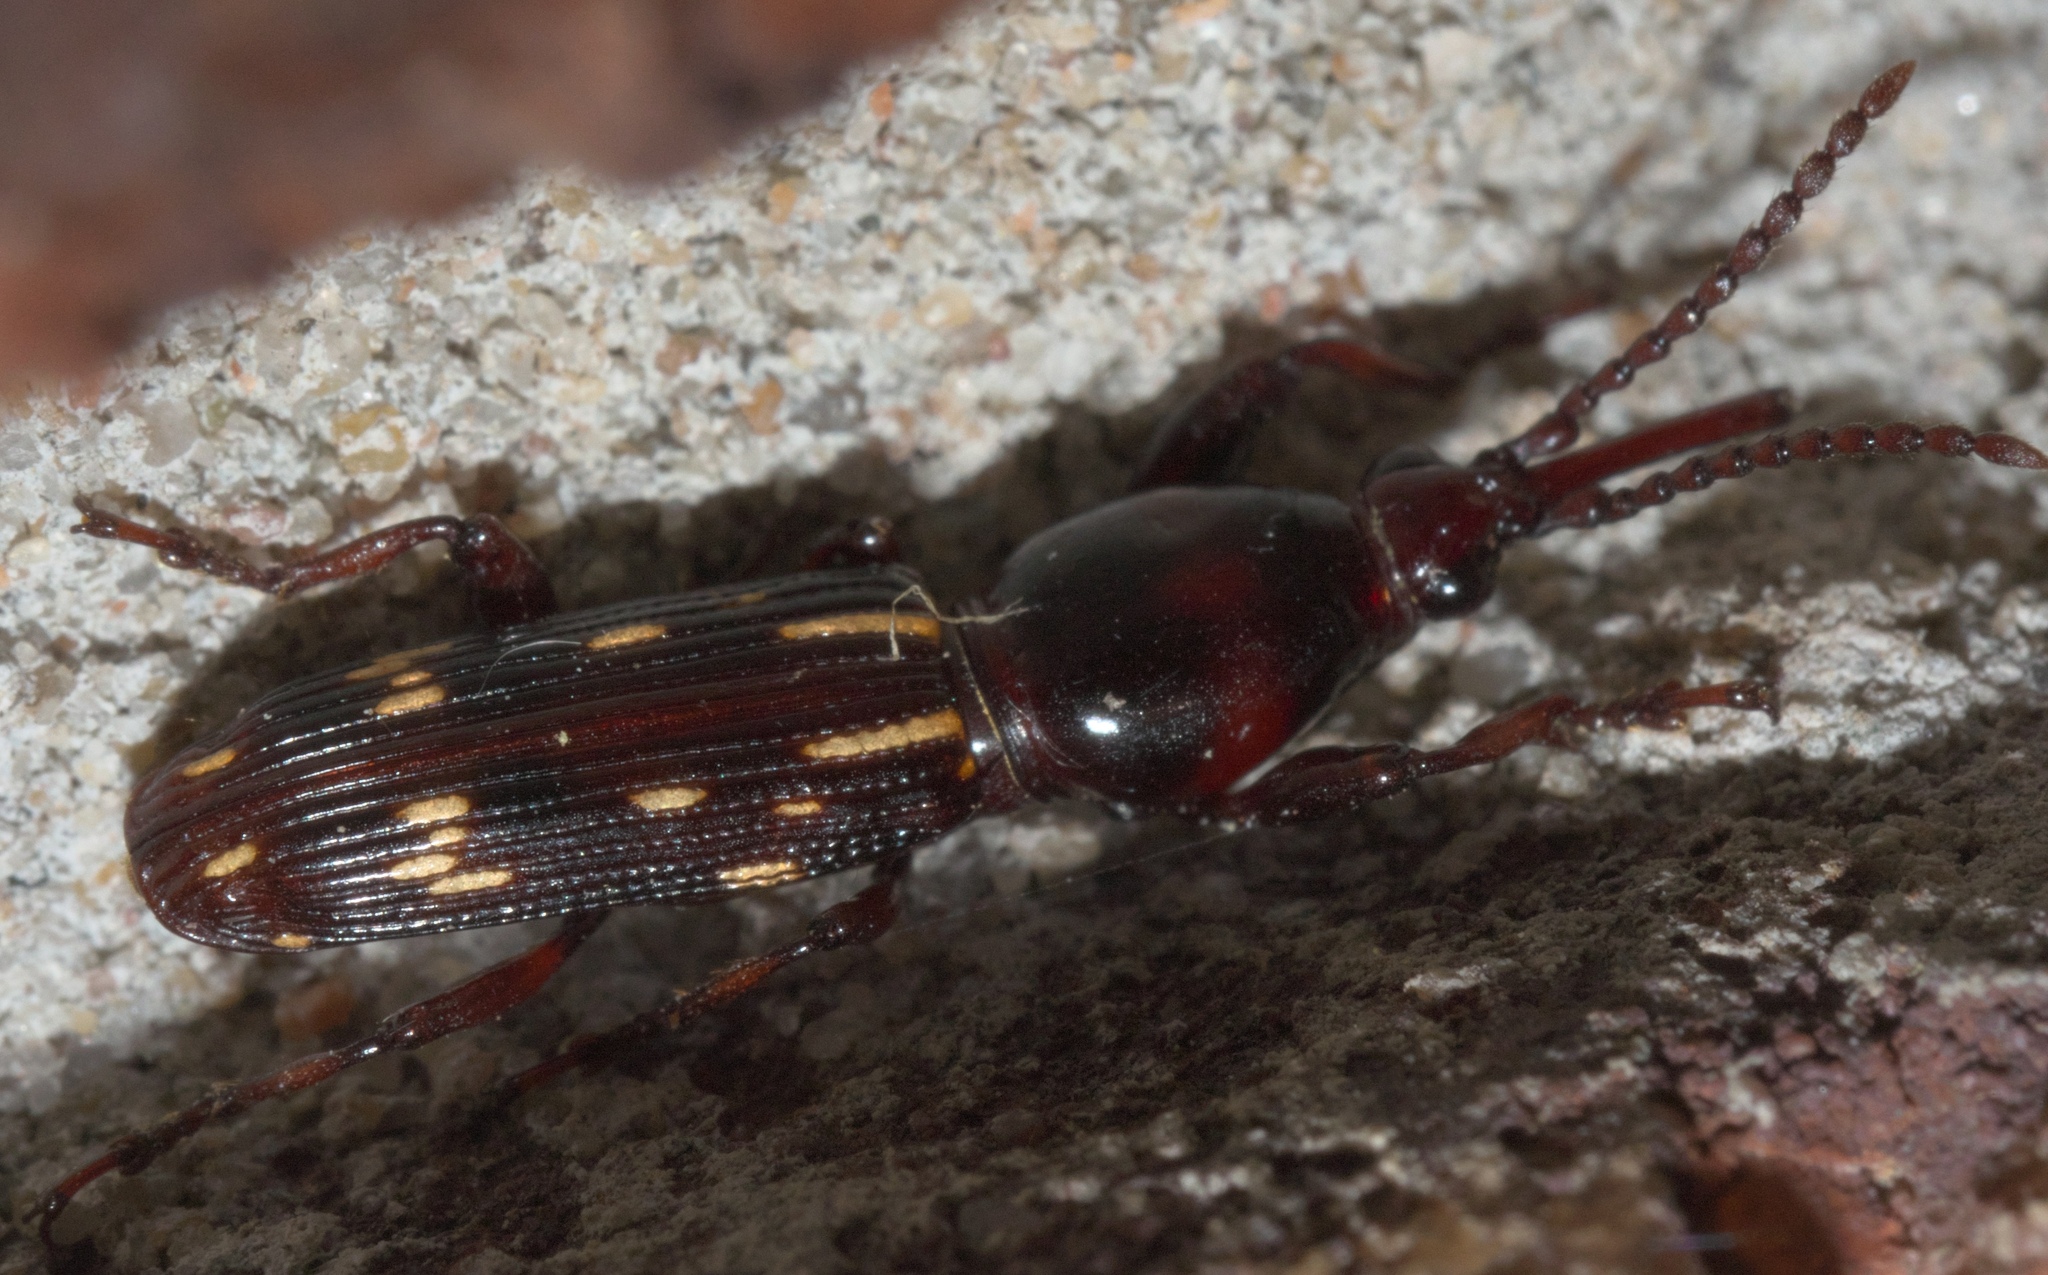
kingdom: Animalia
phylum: Arthropoda
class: Insecta
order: Coleoptera
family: Brentidae
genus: Arrenodes
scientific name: Arrenodes minutus
